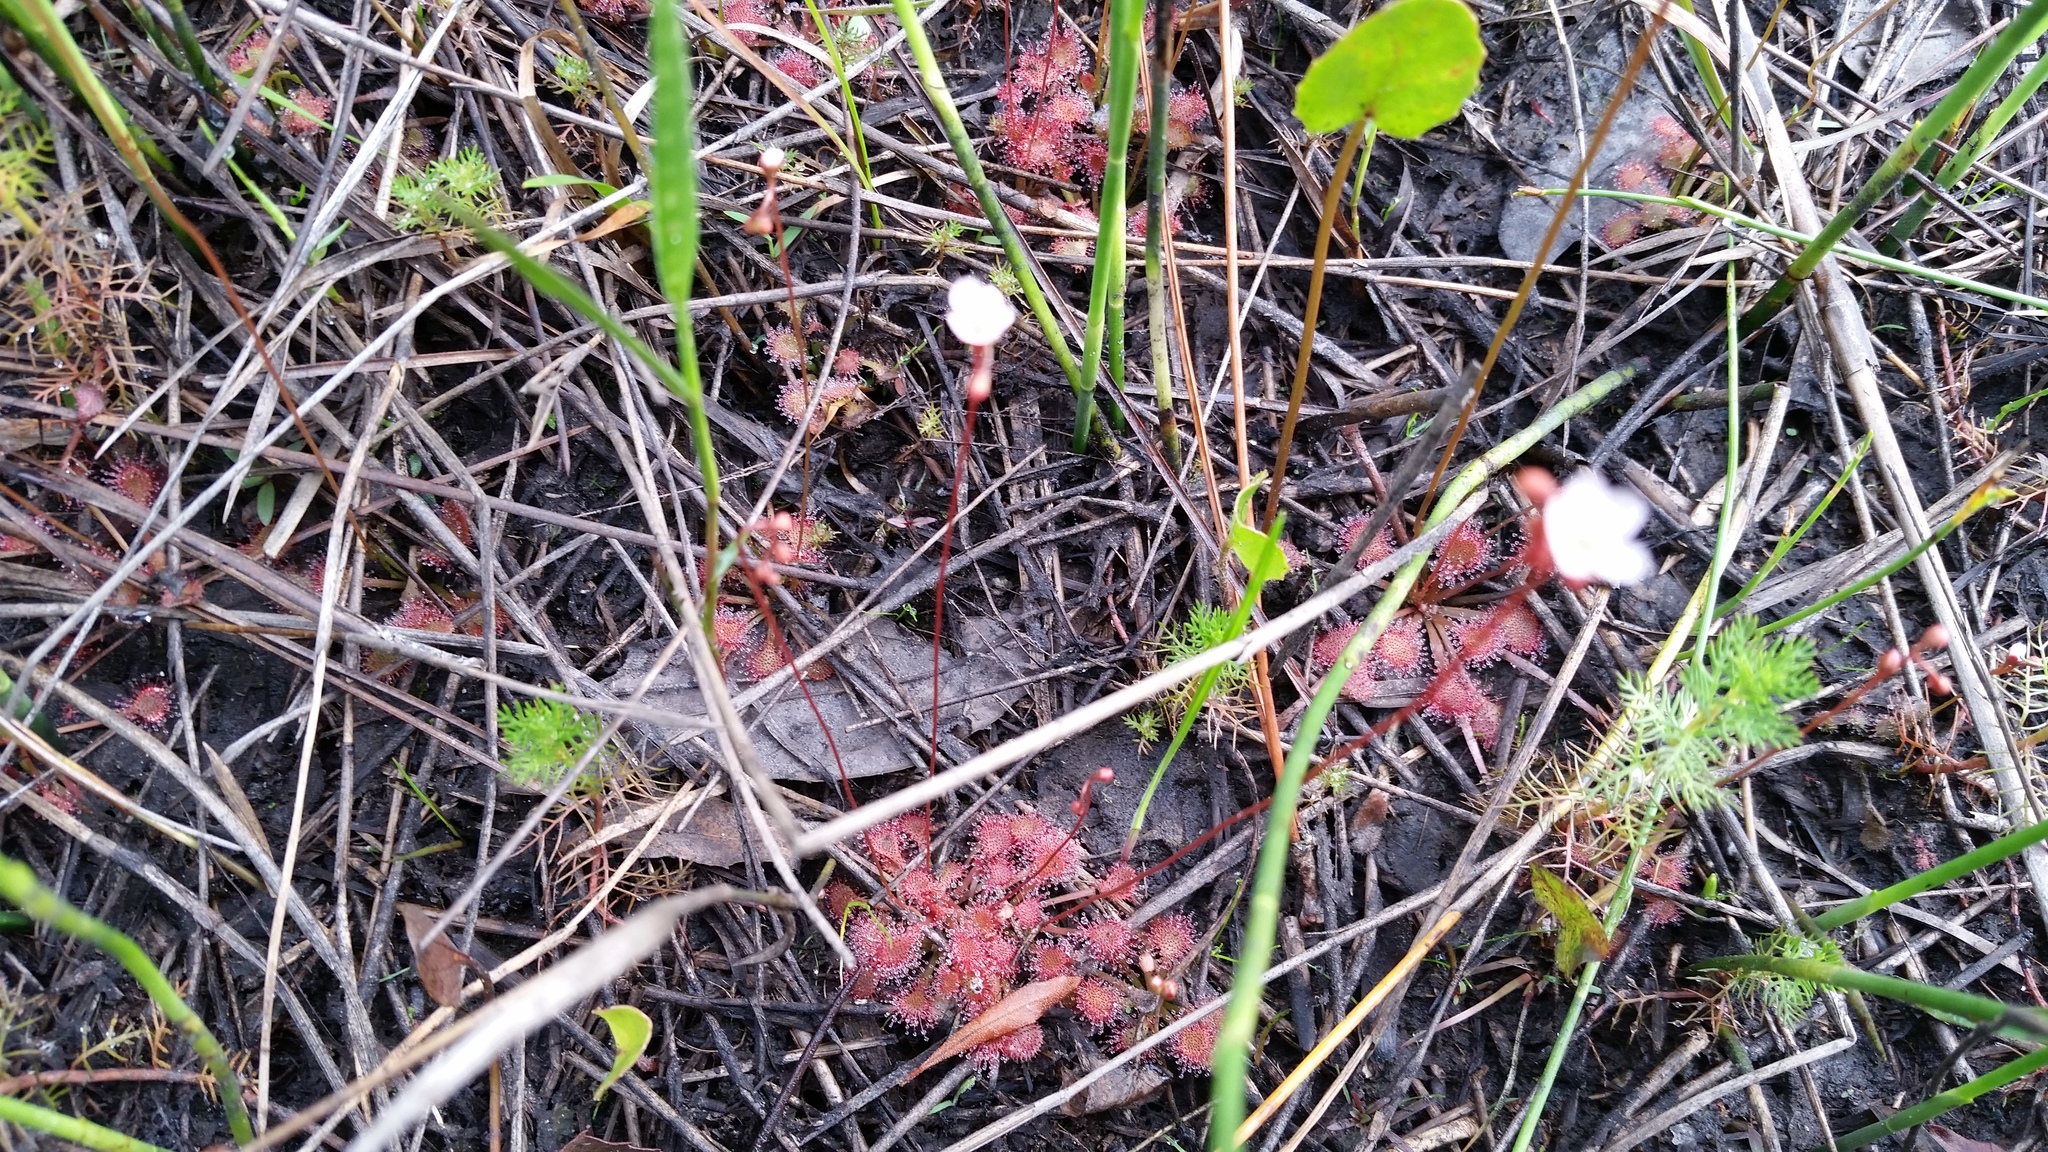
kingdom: Plantae
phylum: Tracheophyta
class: Magnoliopsida
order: Caryophyllales
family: Droseraceae
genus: Drosera
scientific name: Drosera capillaris
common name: Pink sundew
